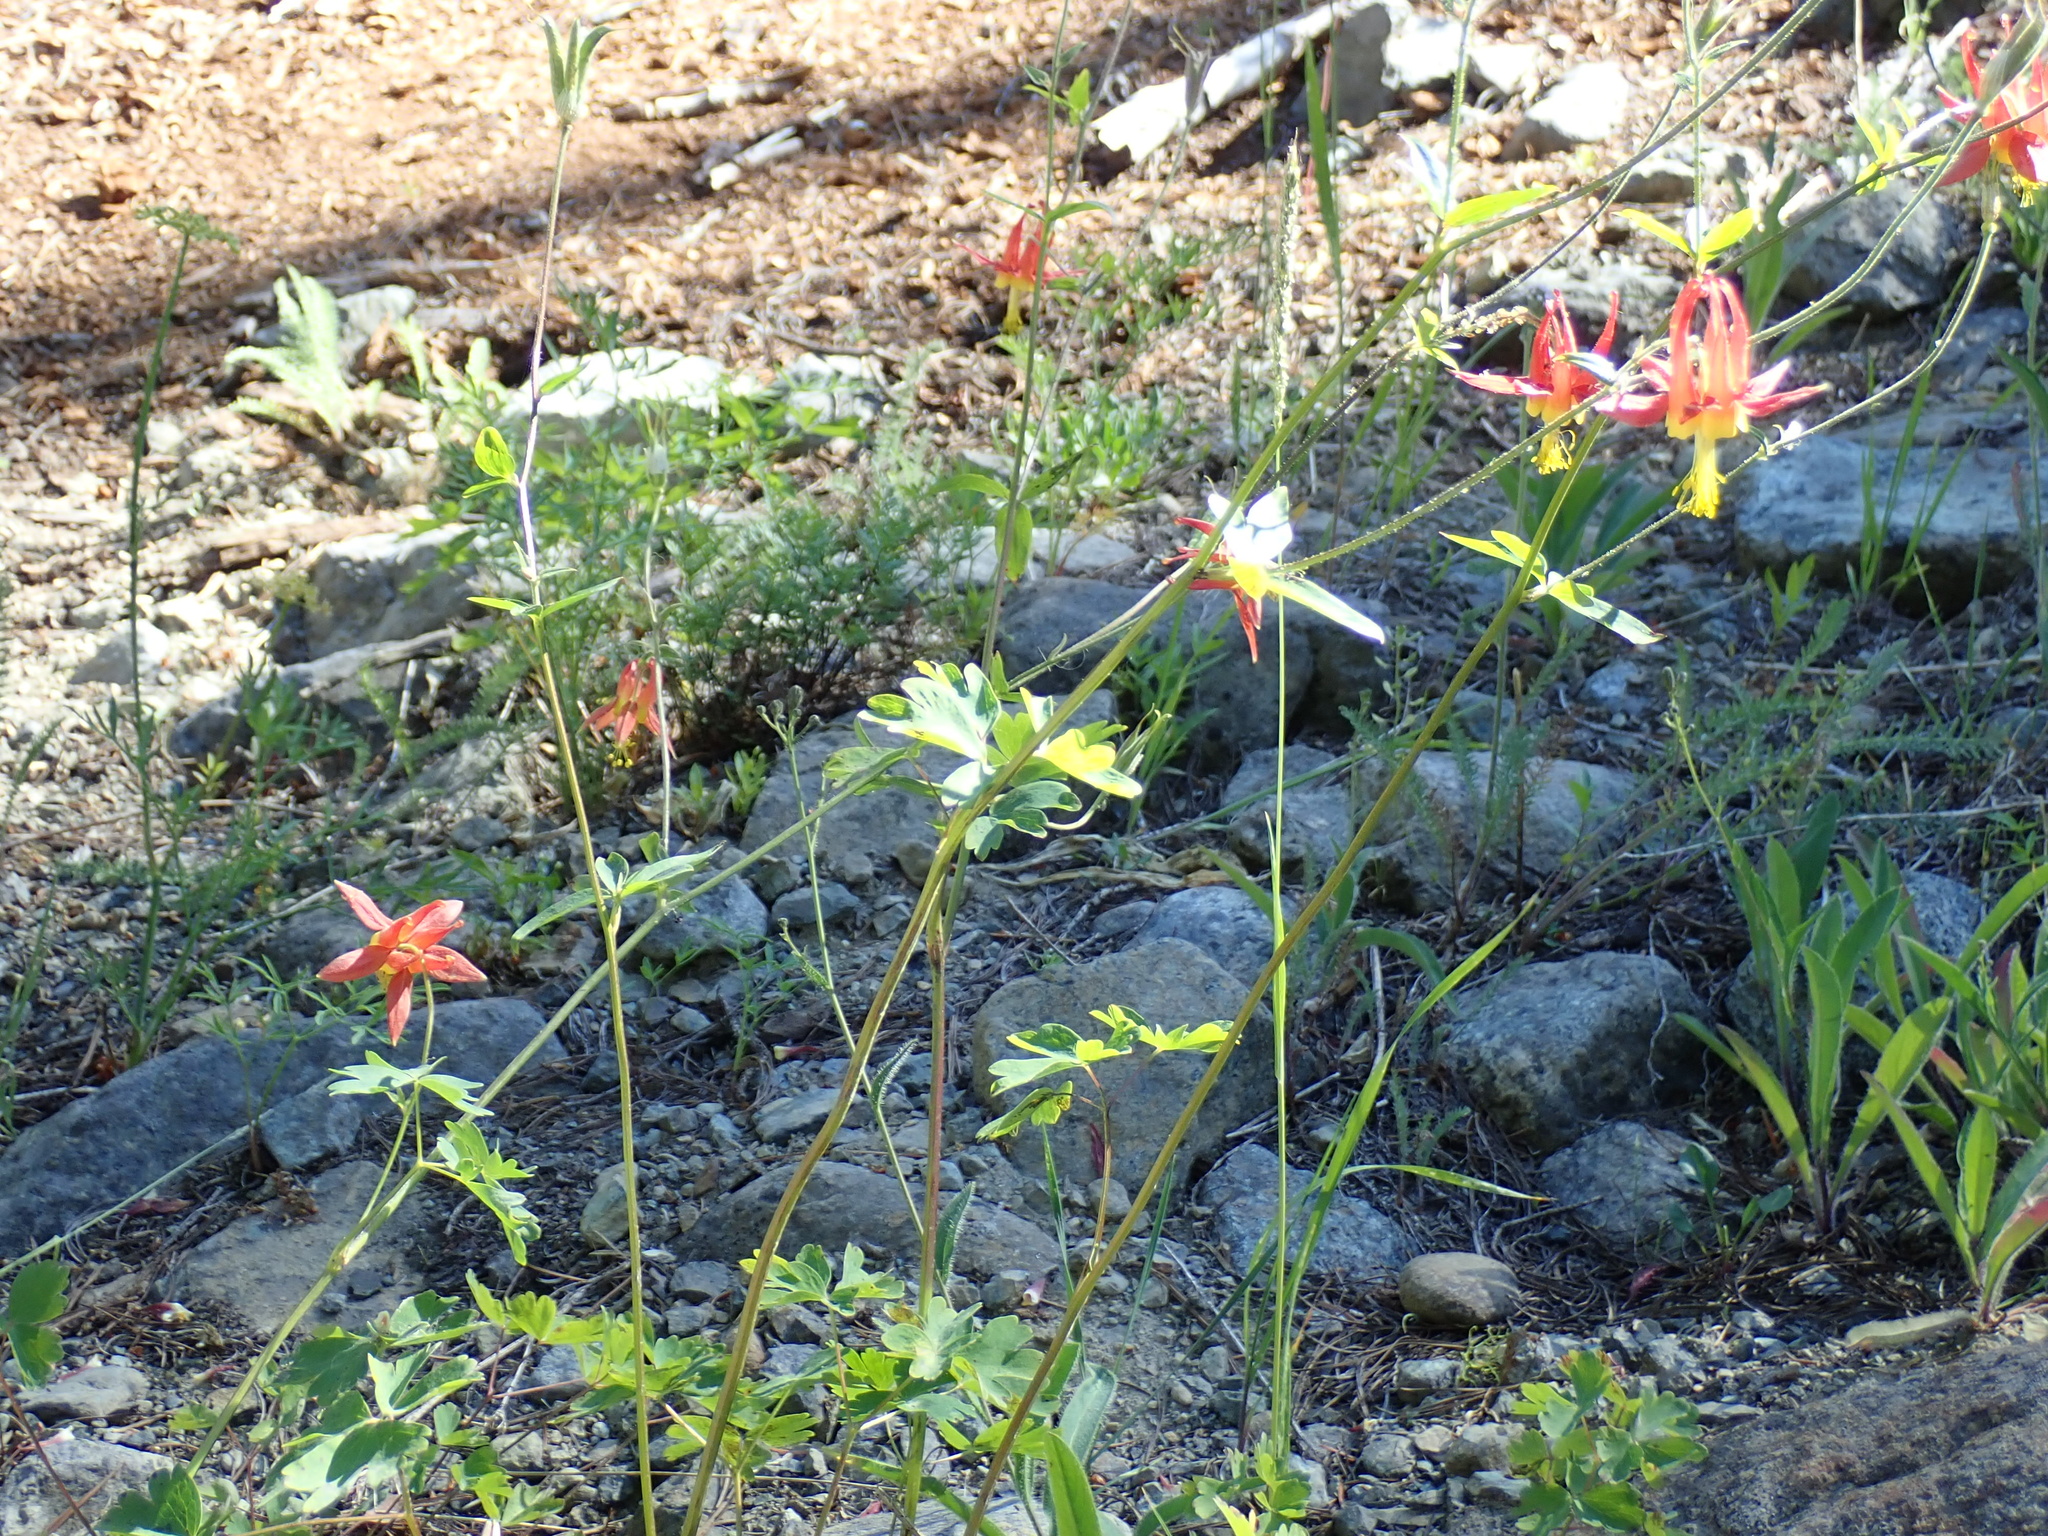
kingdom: Plantae
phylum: Tracheophyta
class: Magnoliopsida
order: Ranunculales
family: Ranunculaceae
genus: Aquilegia
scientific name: Aquilegia formosa
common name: Sitka columbine
